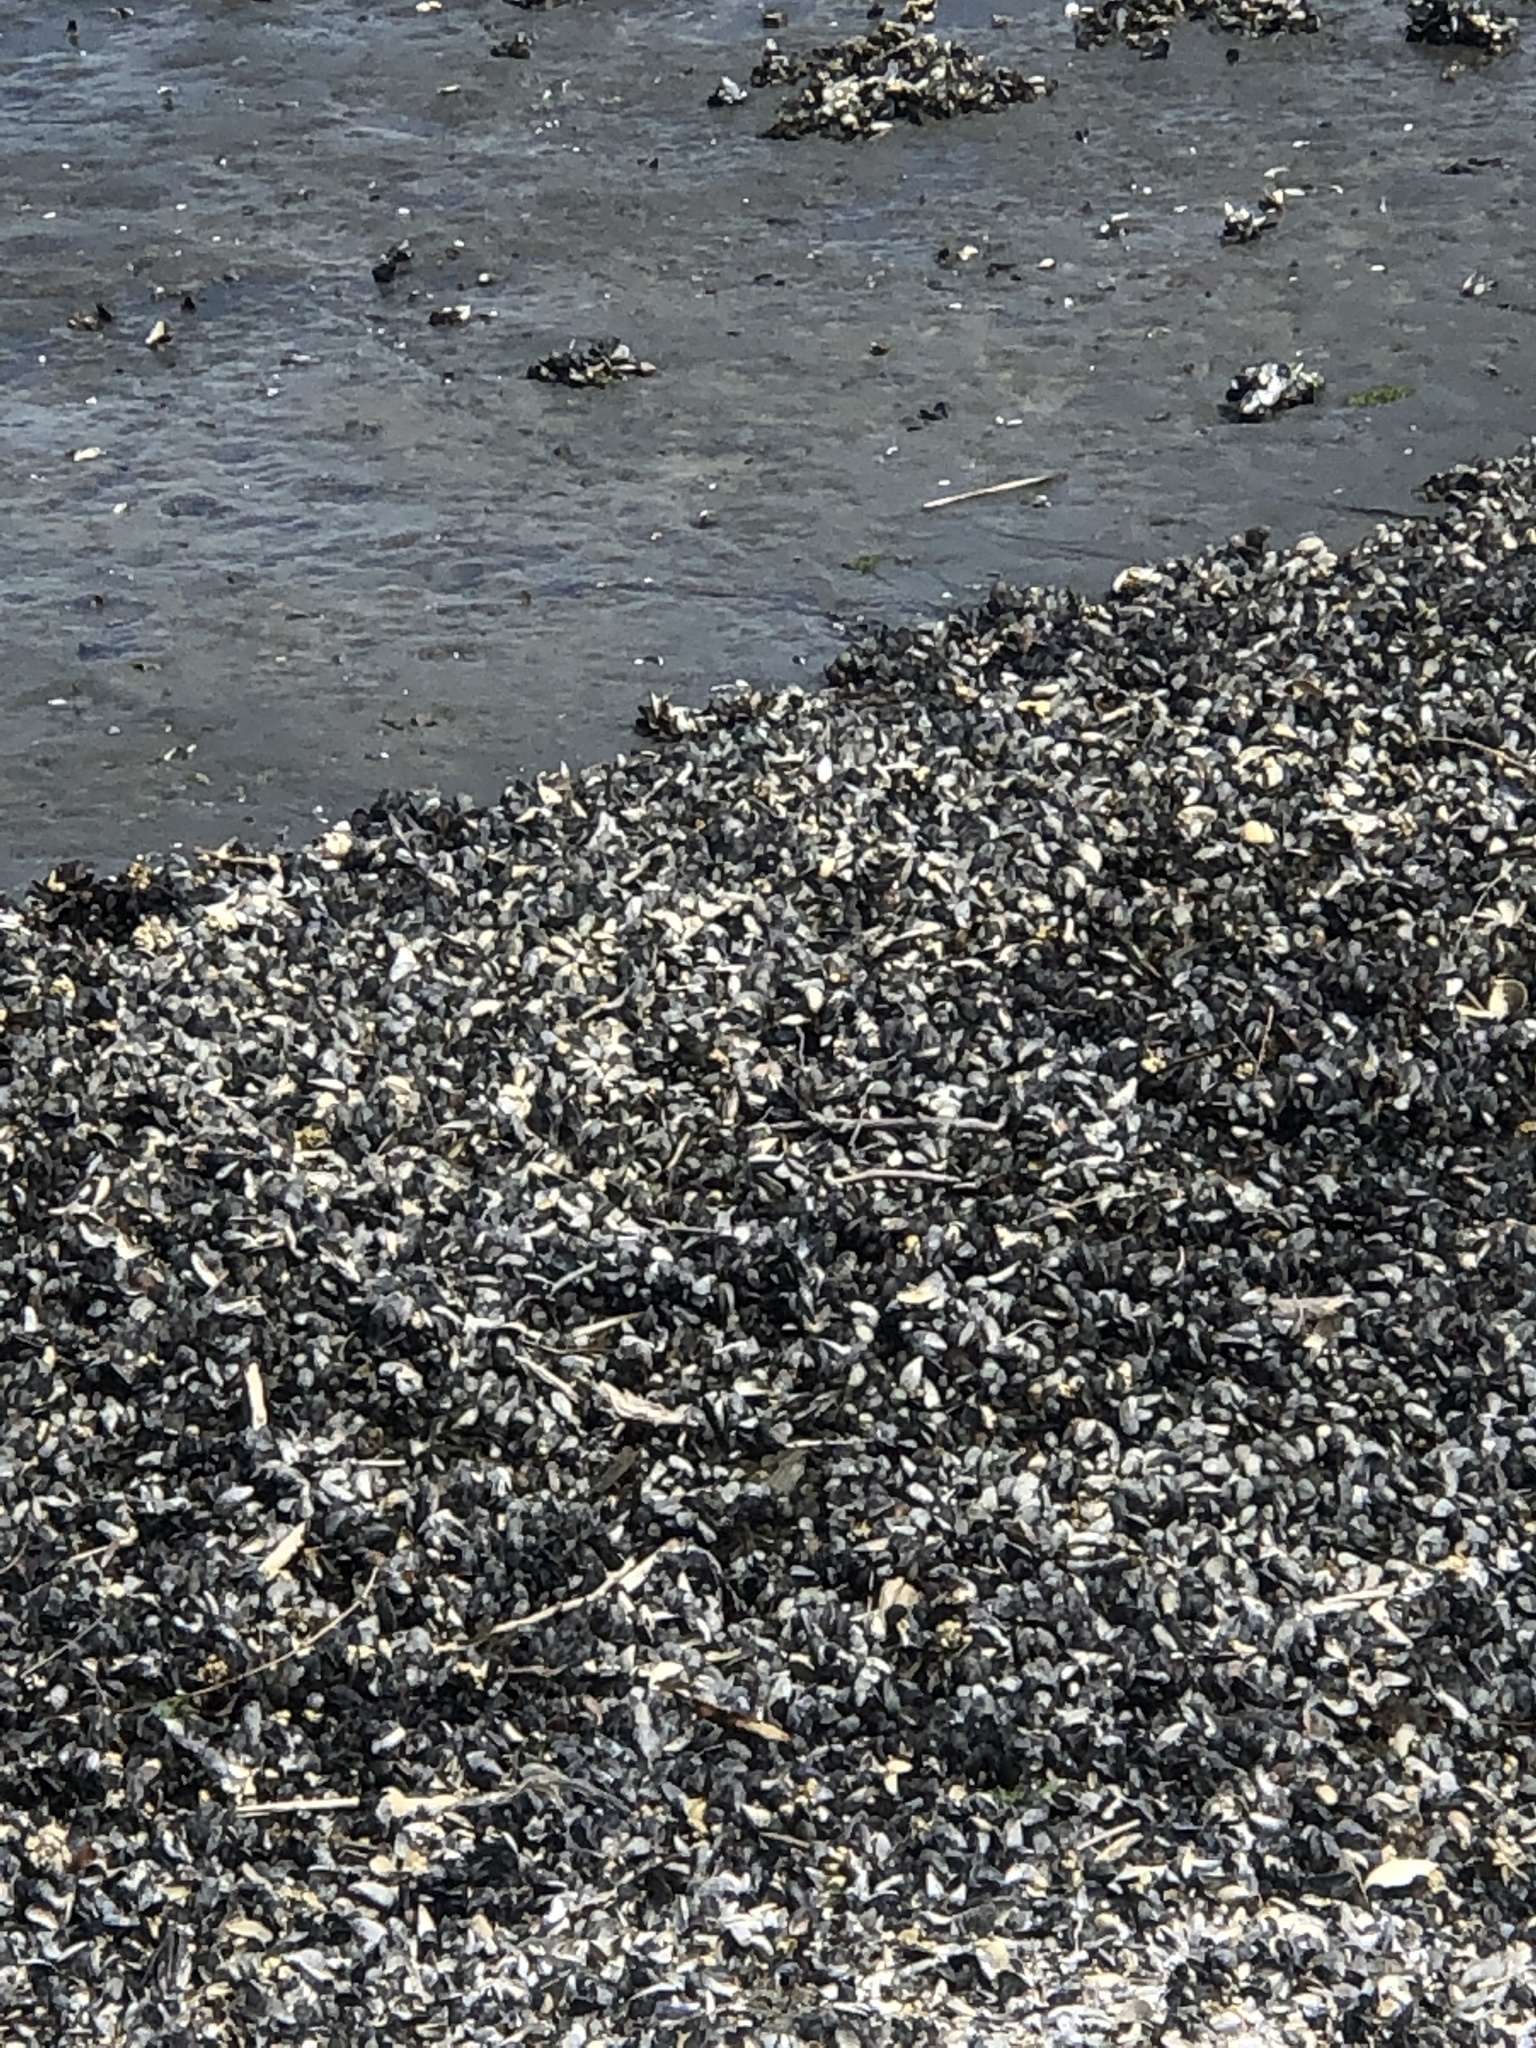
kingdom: Animalia
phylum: Mollusca
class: Bivalvia
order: Mytilida
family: Mytilidae
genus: Mytilus
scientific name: Mytilus
